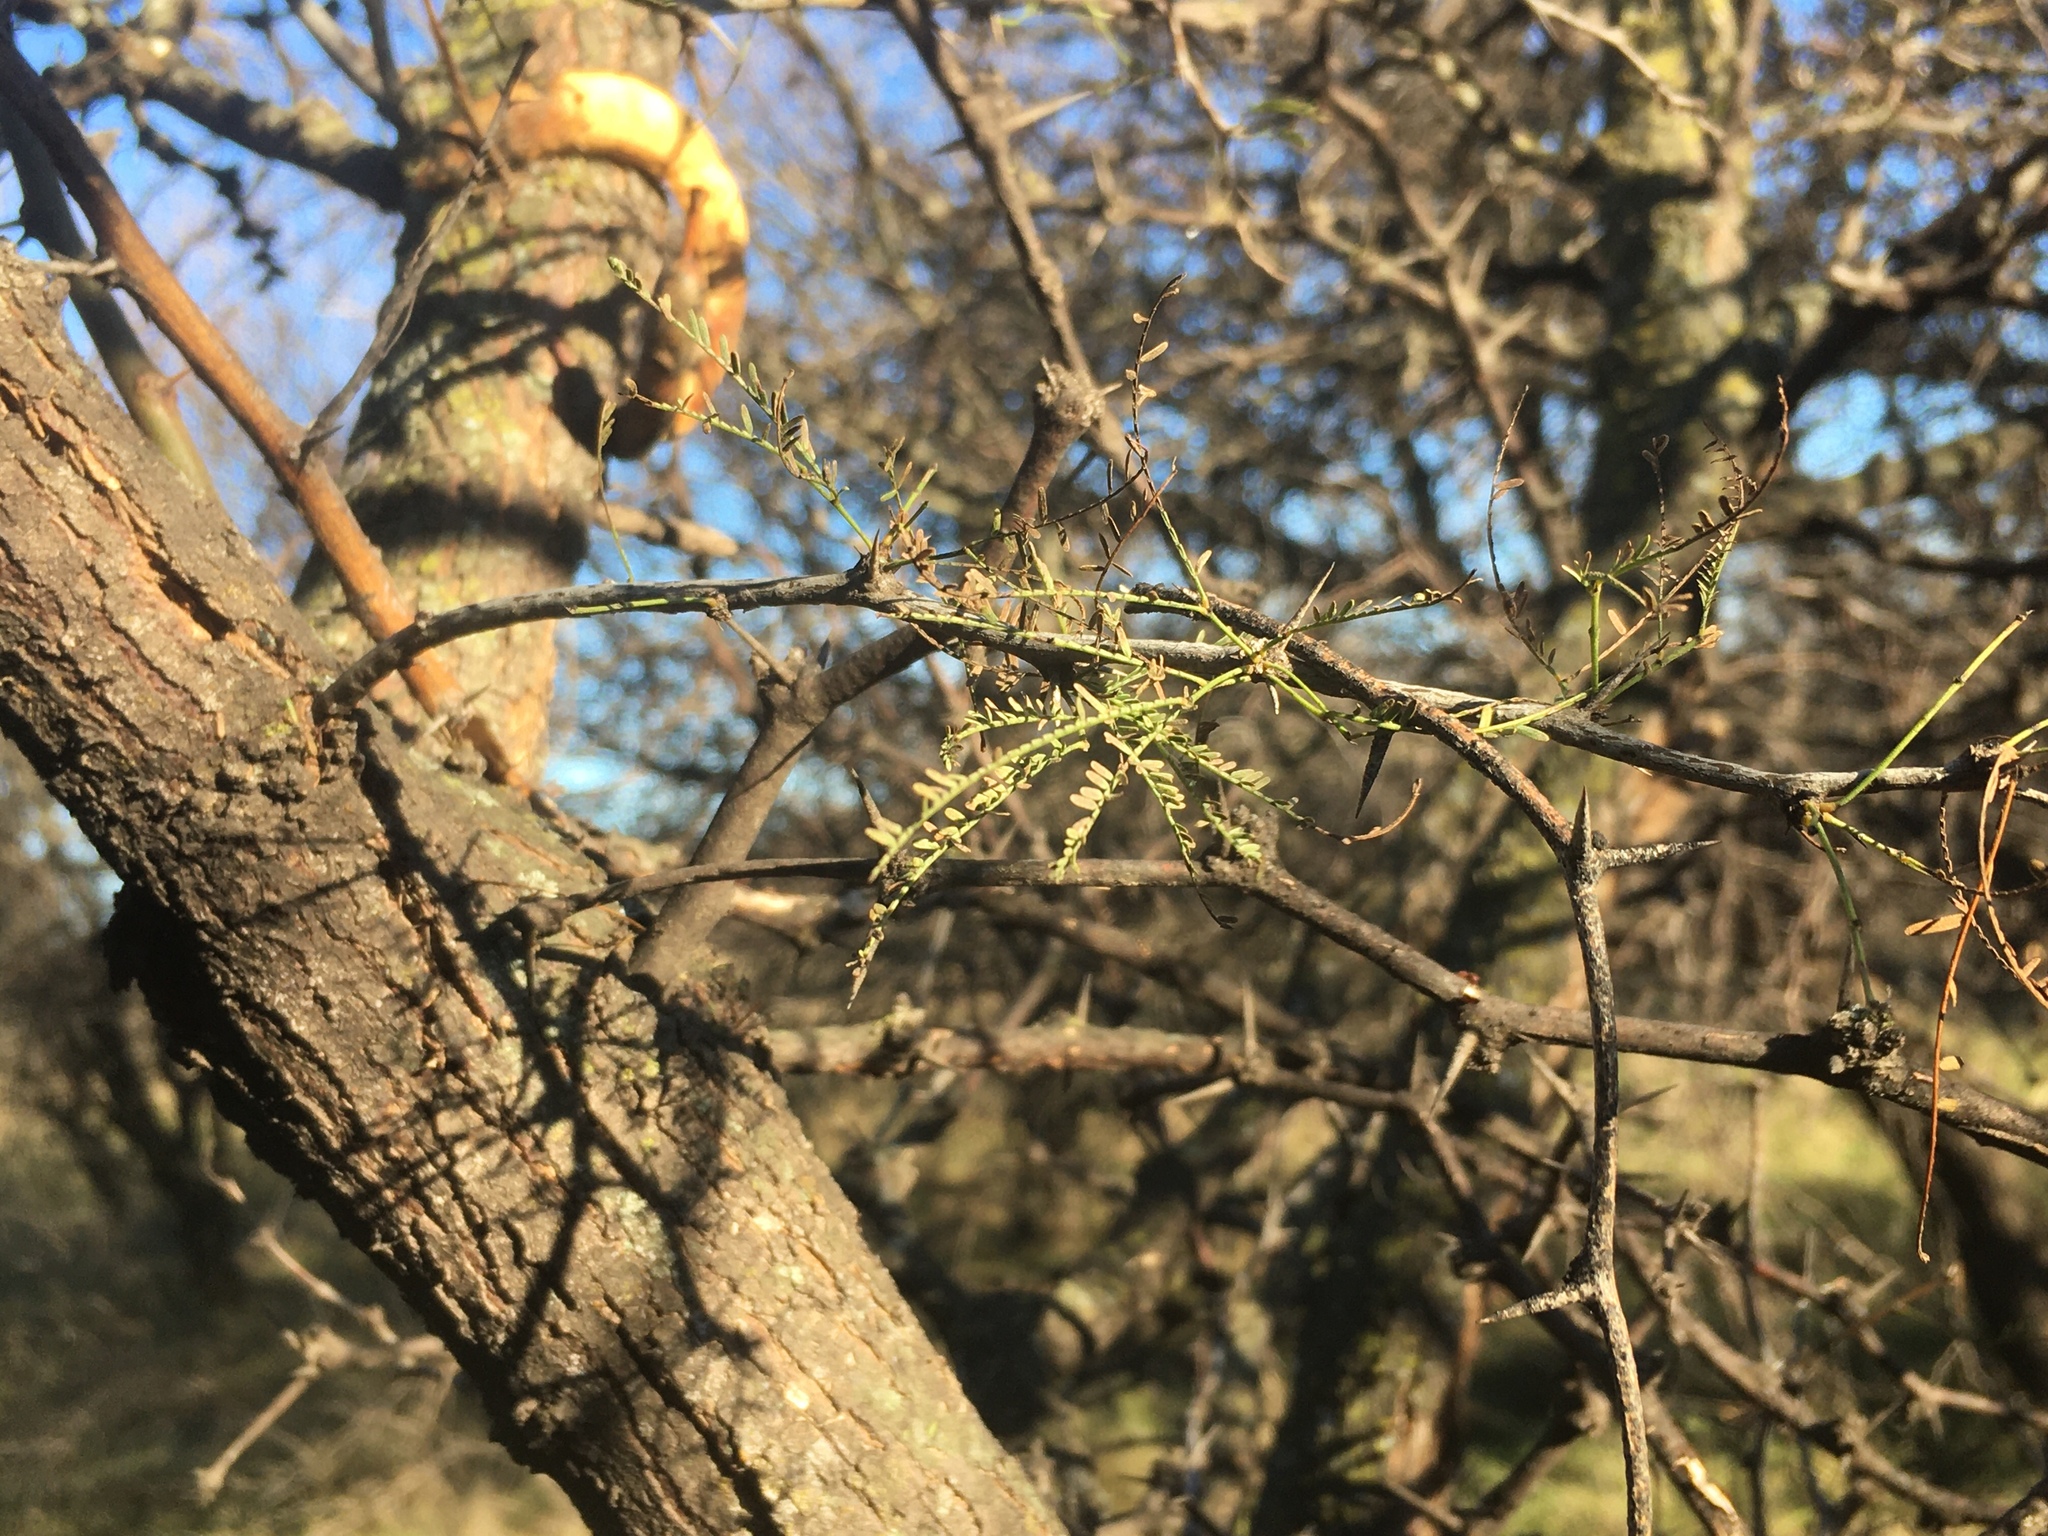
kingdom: Plantae
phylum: Tracheophyta
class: Magnoliopsida
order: Fabales
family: Fabaceae
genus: Prosopis
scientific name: Prosopis caldenia
